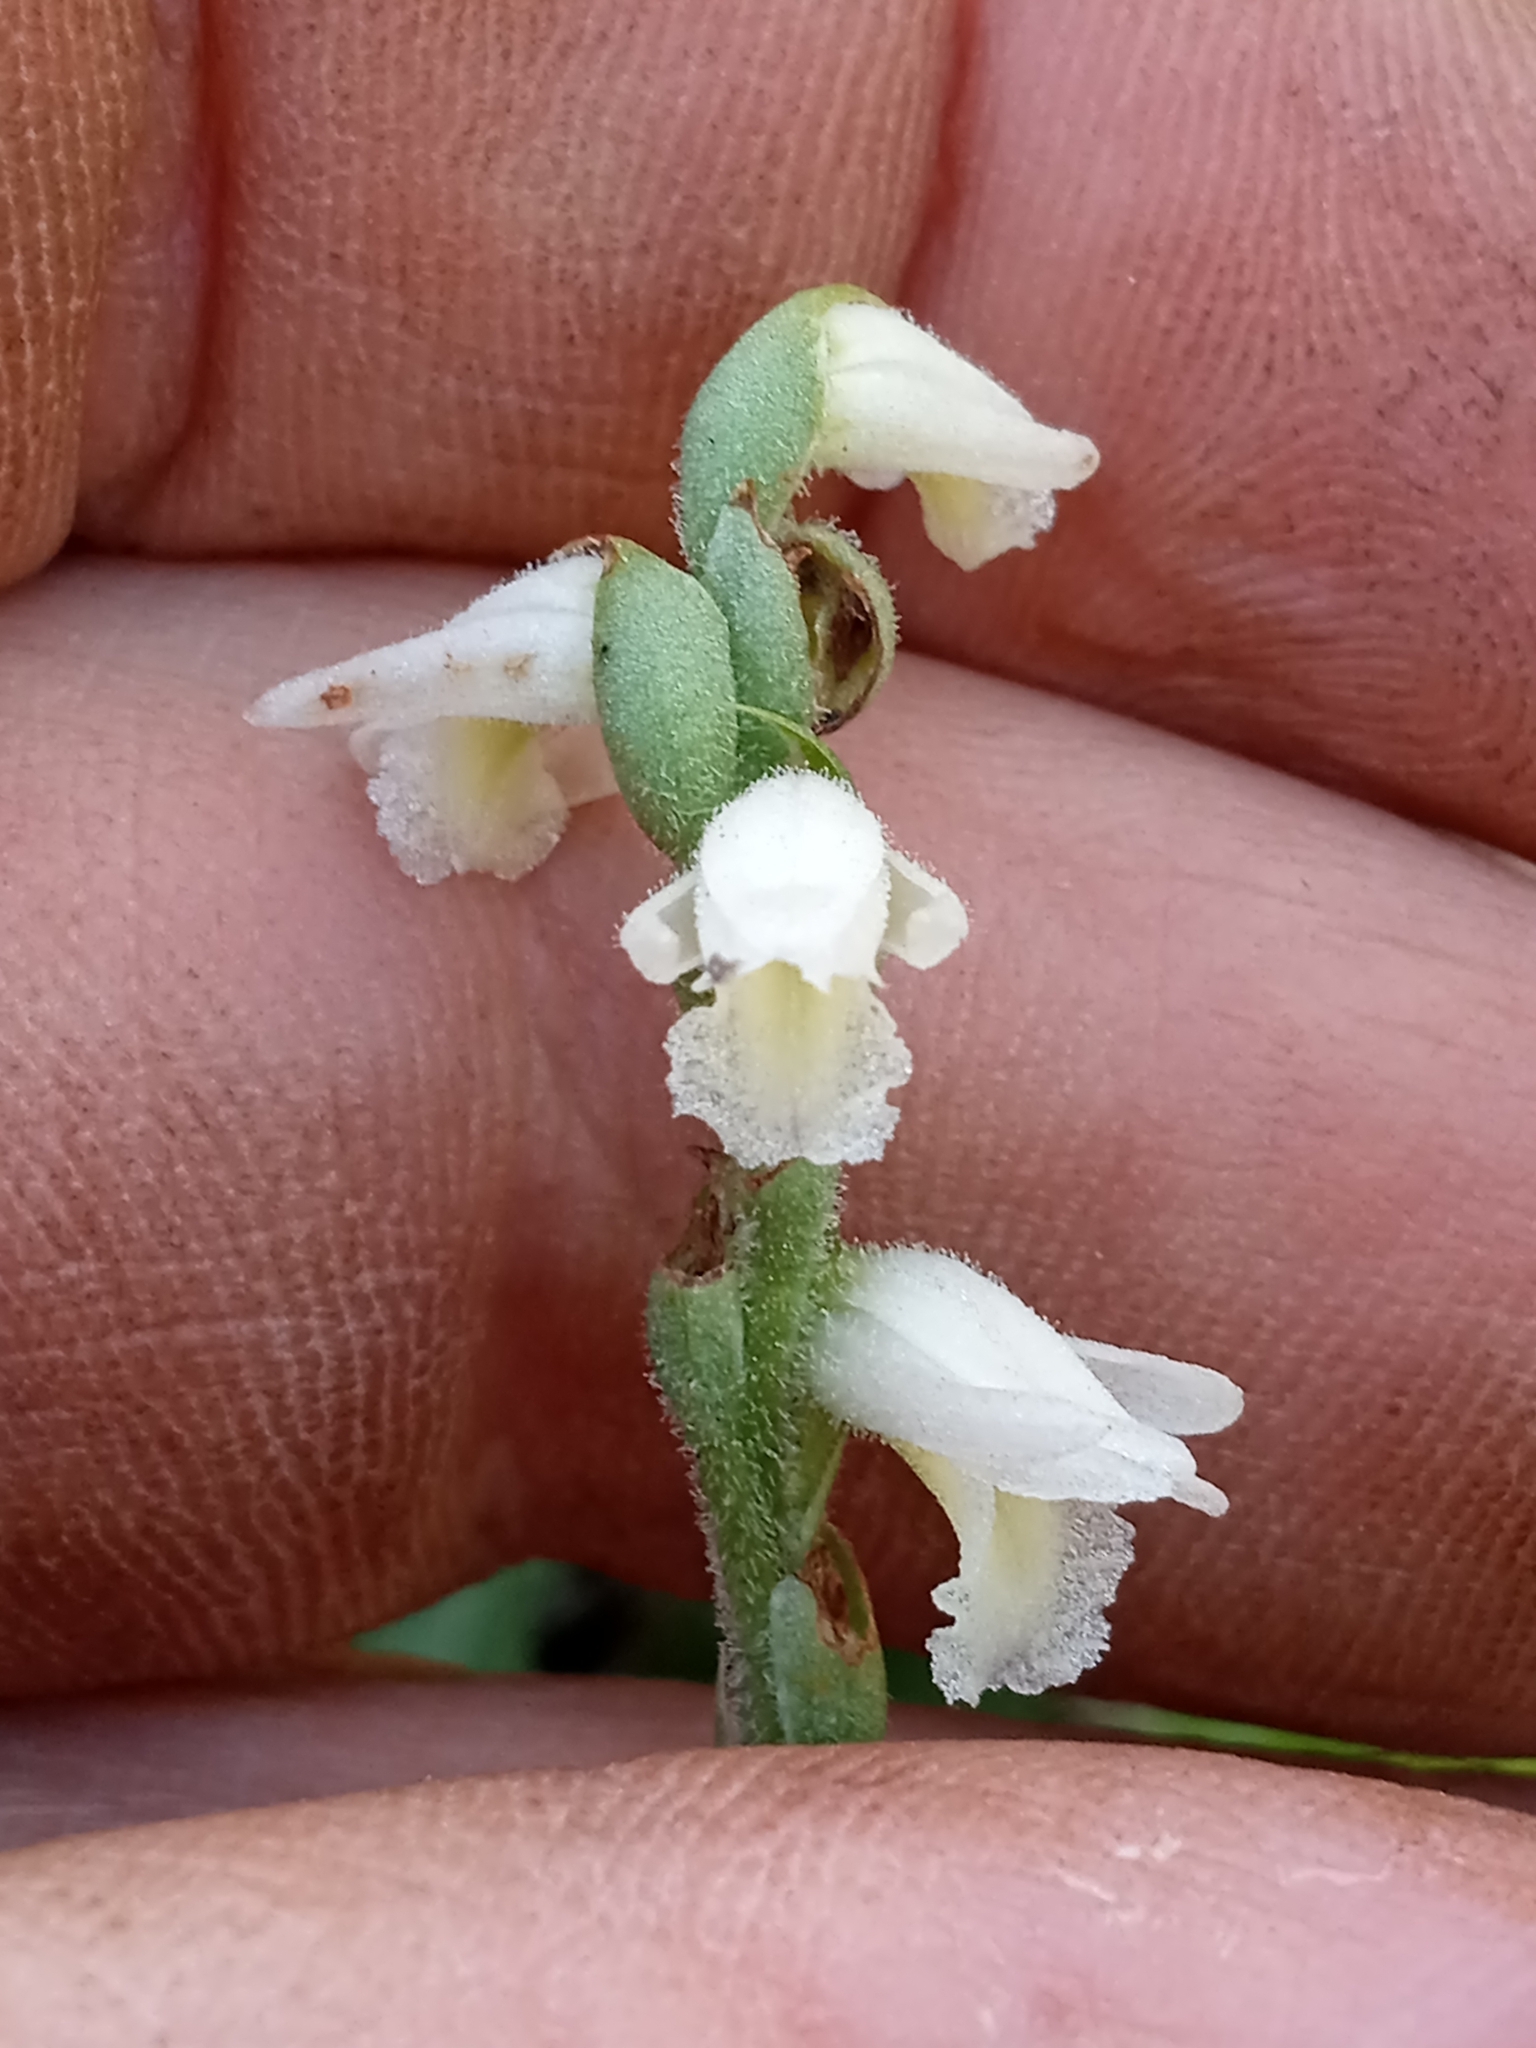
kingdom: Plantae
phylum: Tracheophyta
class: Liliopsida
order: Asparagales
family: Orchidaceae
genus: Spiranthes
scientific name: Spiranthes magnicamporum
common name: Great plains ladies'-tresses
